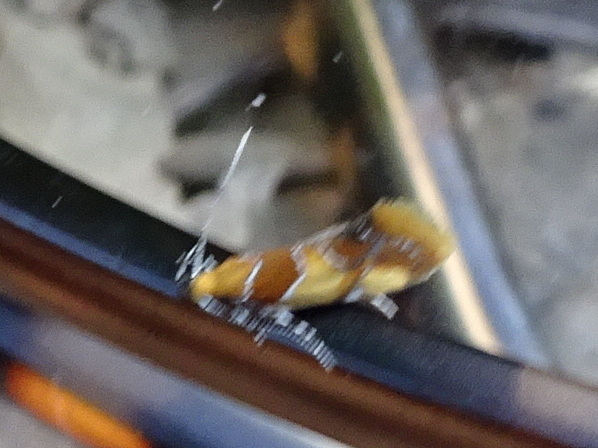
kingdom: Animalia
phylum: Arthropoda
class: Insecta
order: Lepidoptera
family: Oecophoridae
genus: Callima
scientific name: Callima argenticinctella
